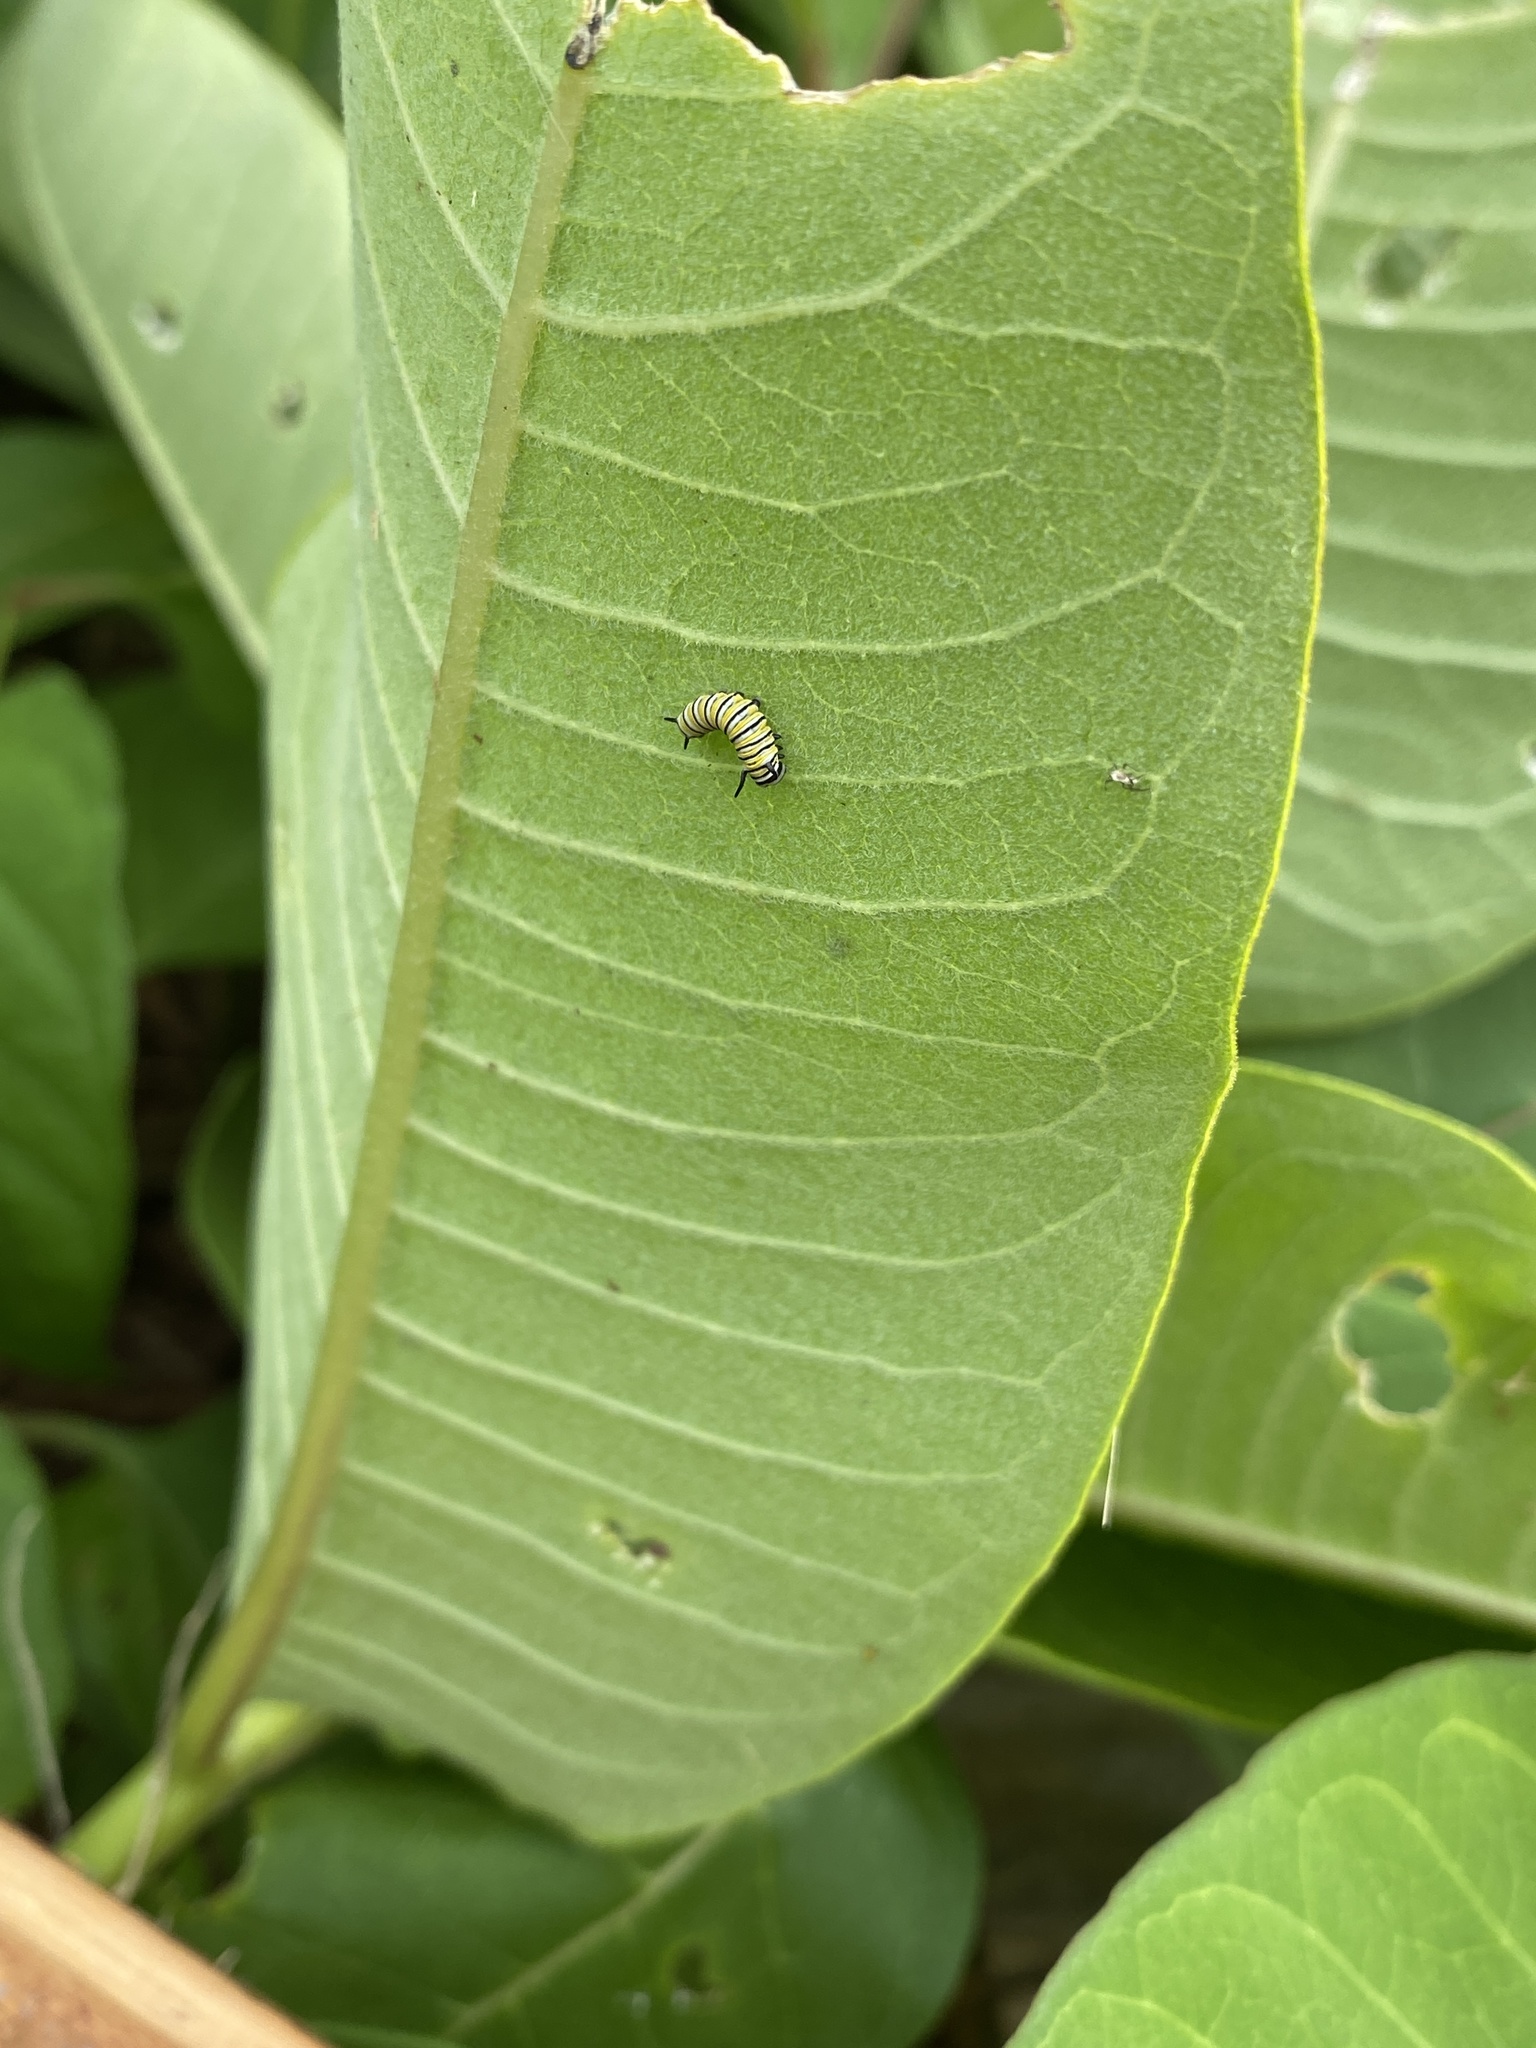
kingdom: Animalia
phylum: Arthropoda
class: Insecta
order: Lepidoptera
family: Nymphalidae
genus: Danaus
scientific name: Danaus plexippus
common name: Monarch
